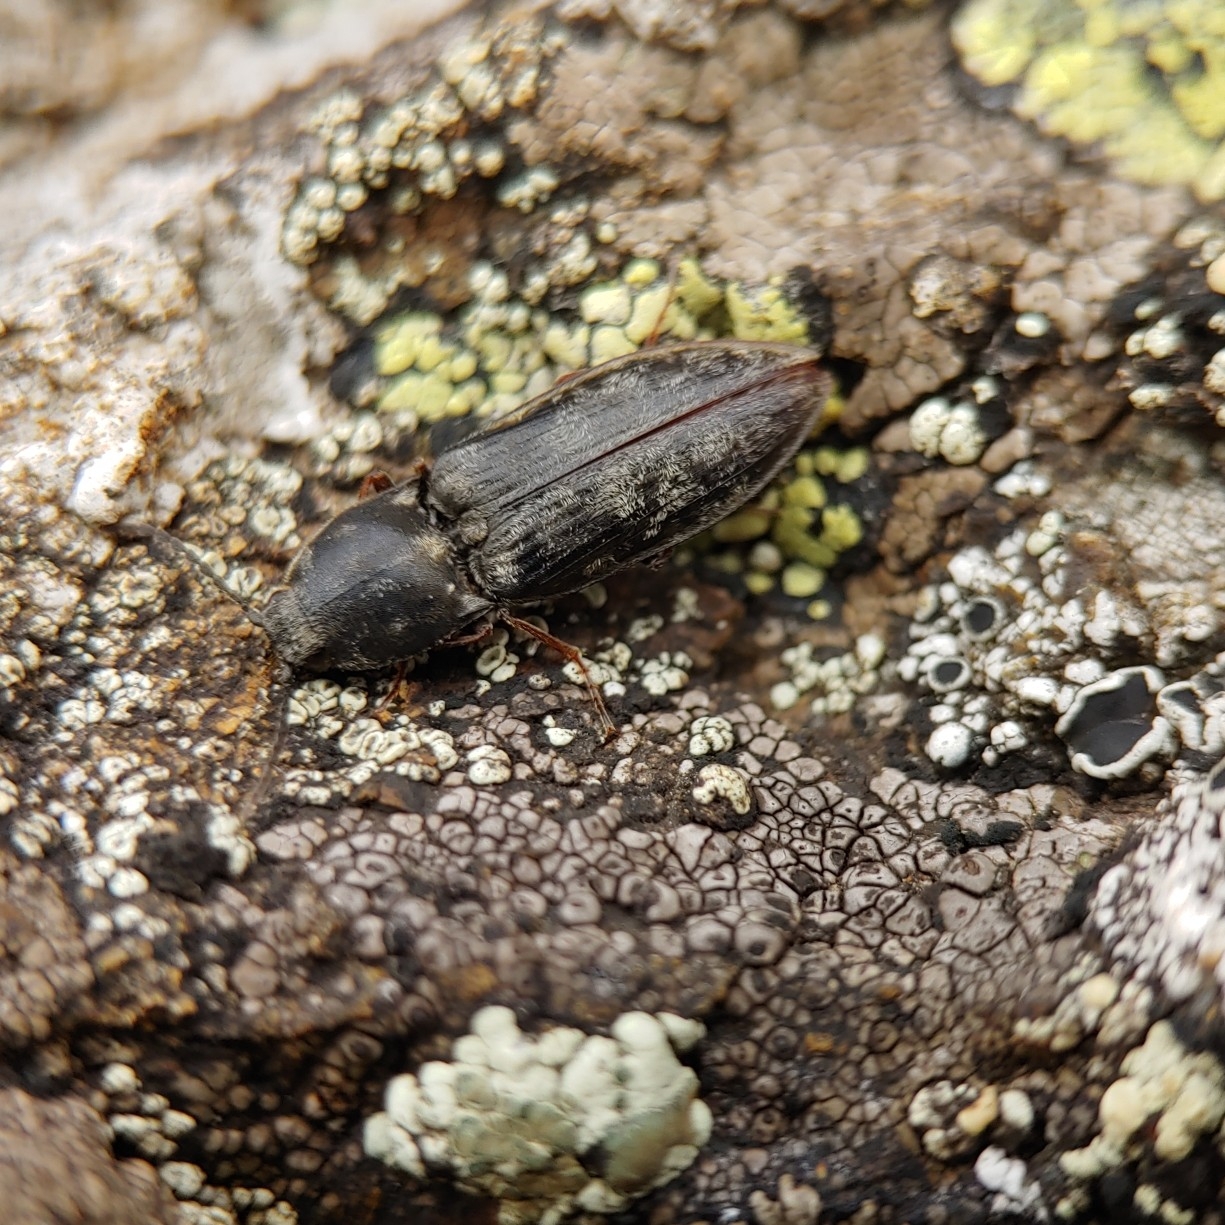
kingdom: Animalia
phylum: Arthropoda
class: Insecta
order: Coleoptera
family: Elateridae
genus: Prosternon
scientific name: Prosternon aurichalceum
